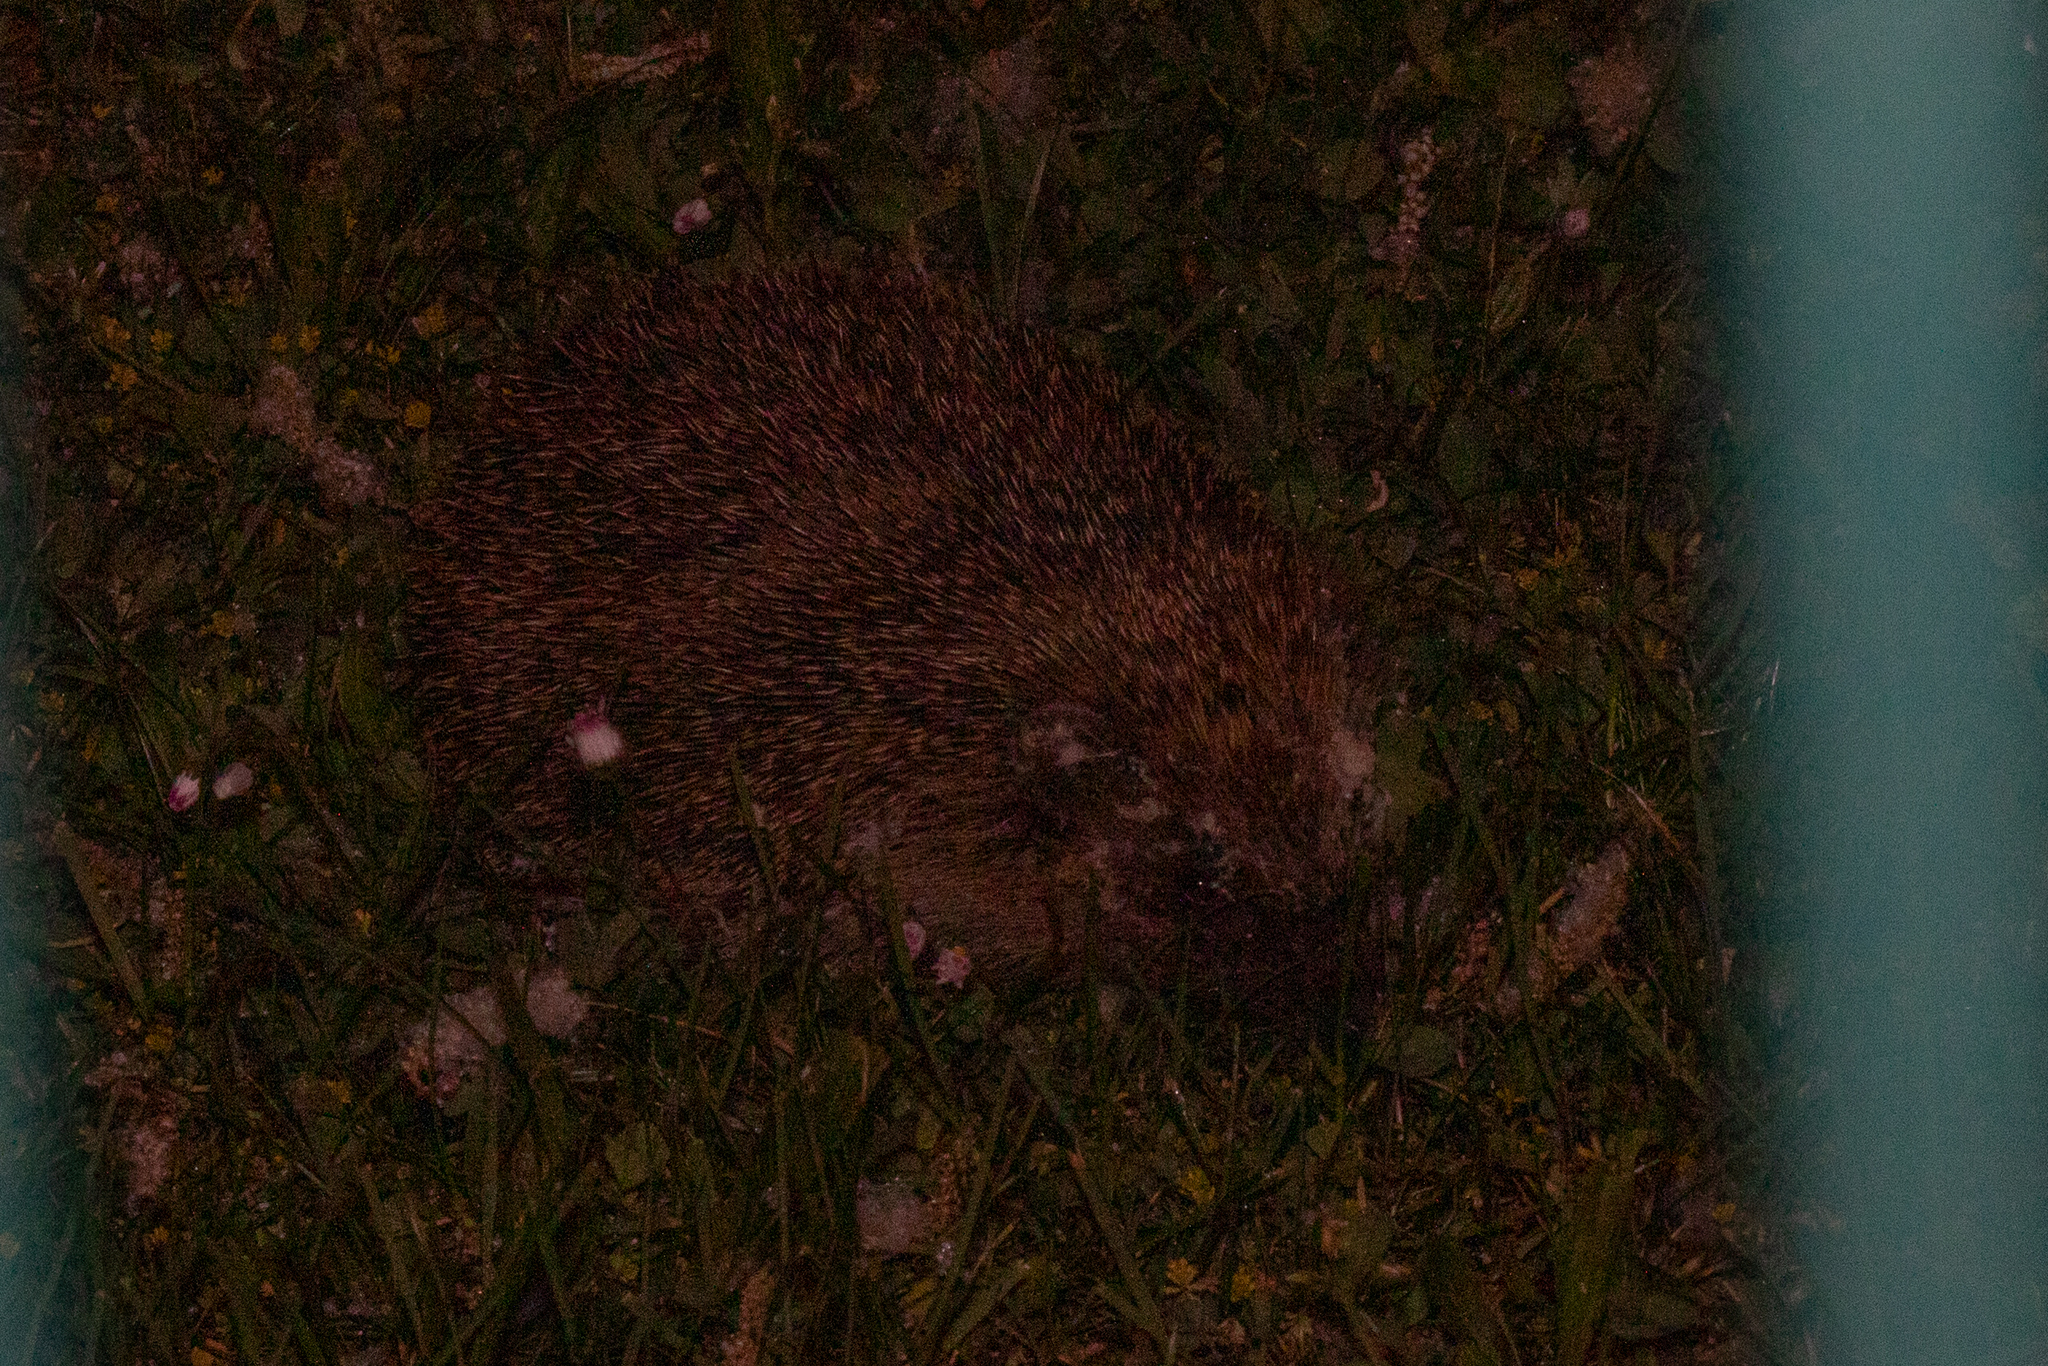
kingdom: Animalia
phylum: Chordata
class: Mammalia
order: Erinaceomorpha
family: Erinaceidae
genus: Erinaceus
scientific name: Erinaceus europaeus
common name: West european hedgehog
